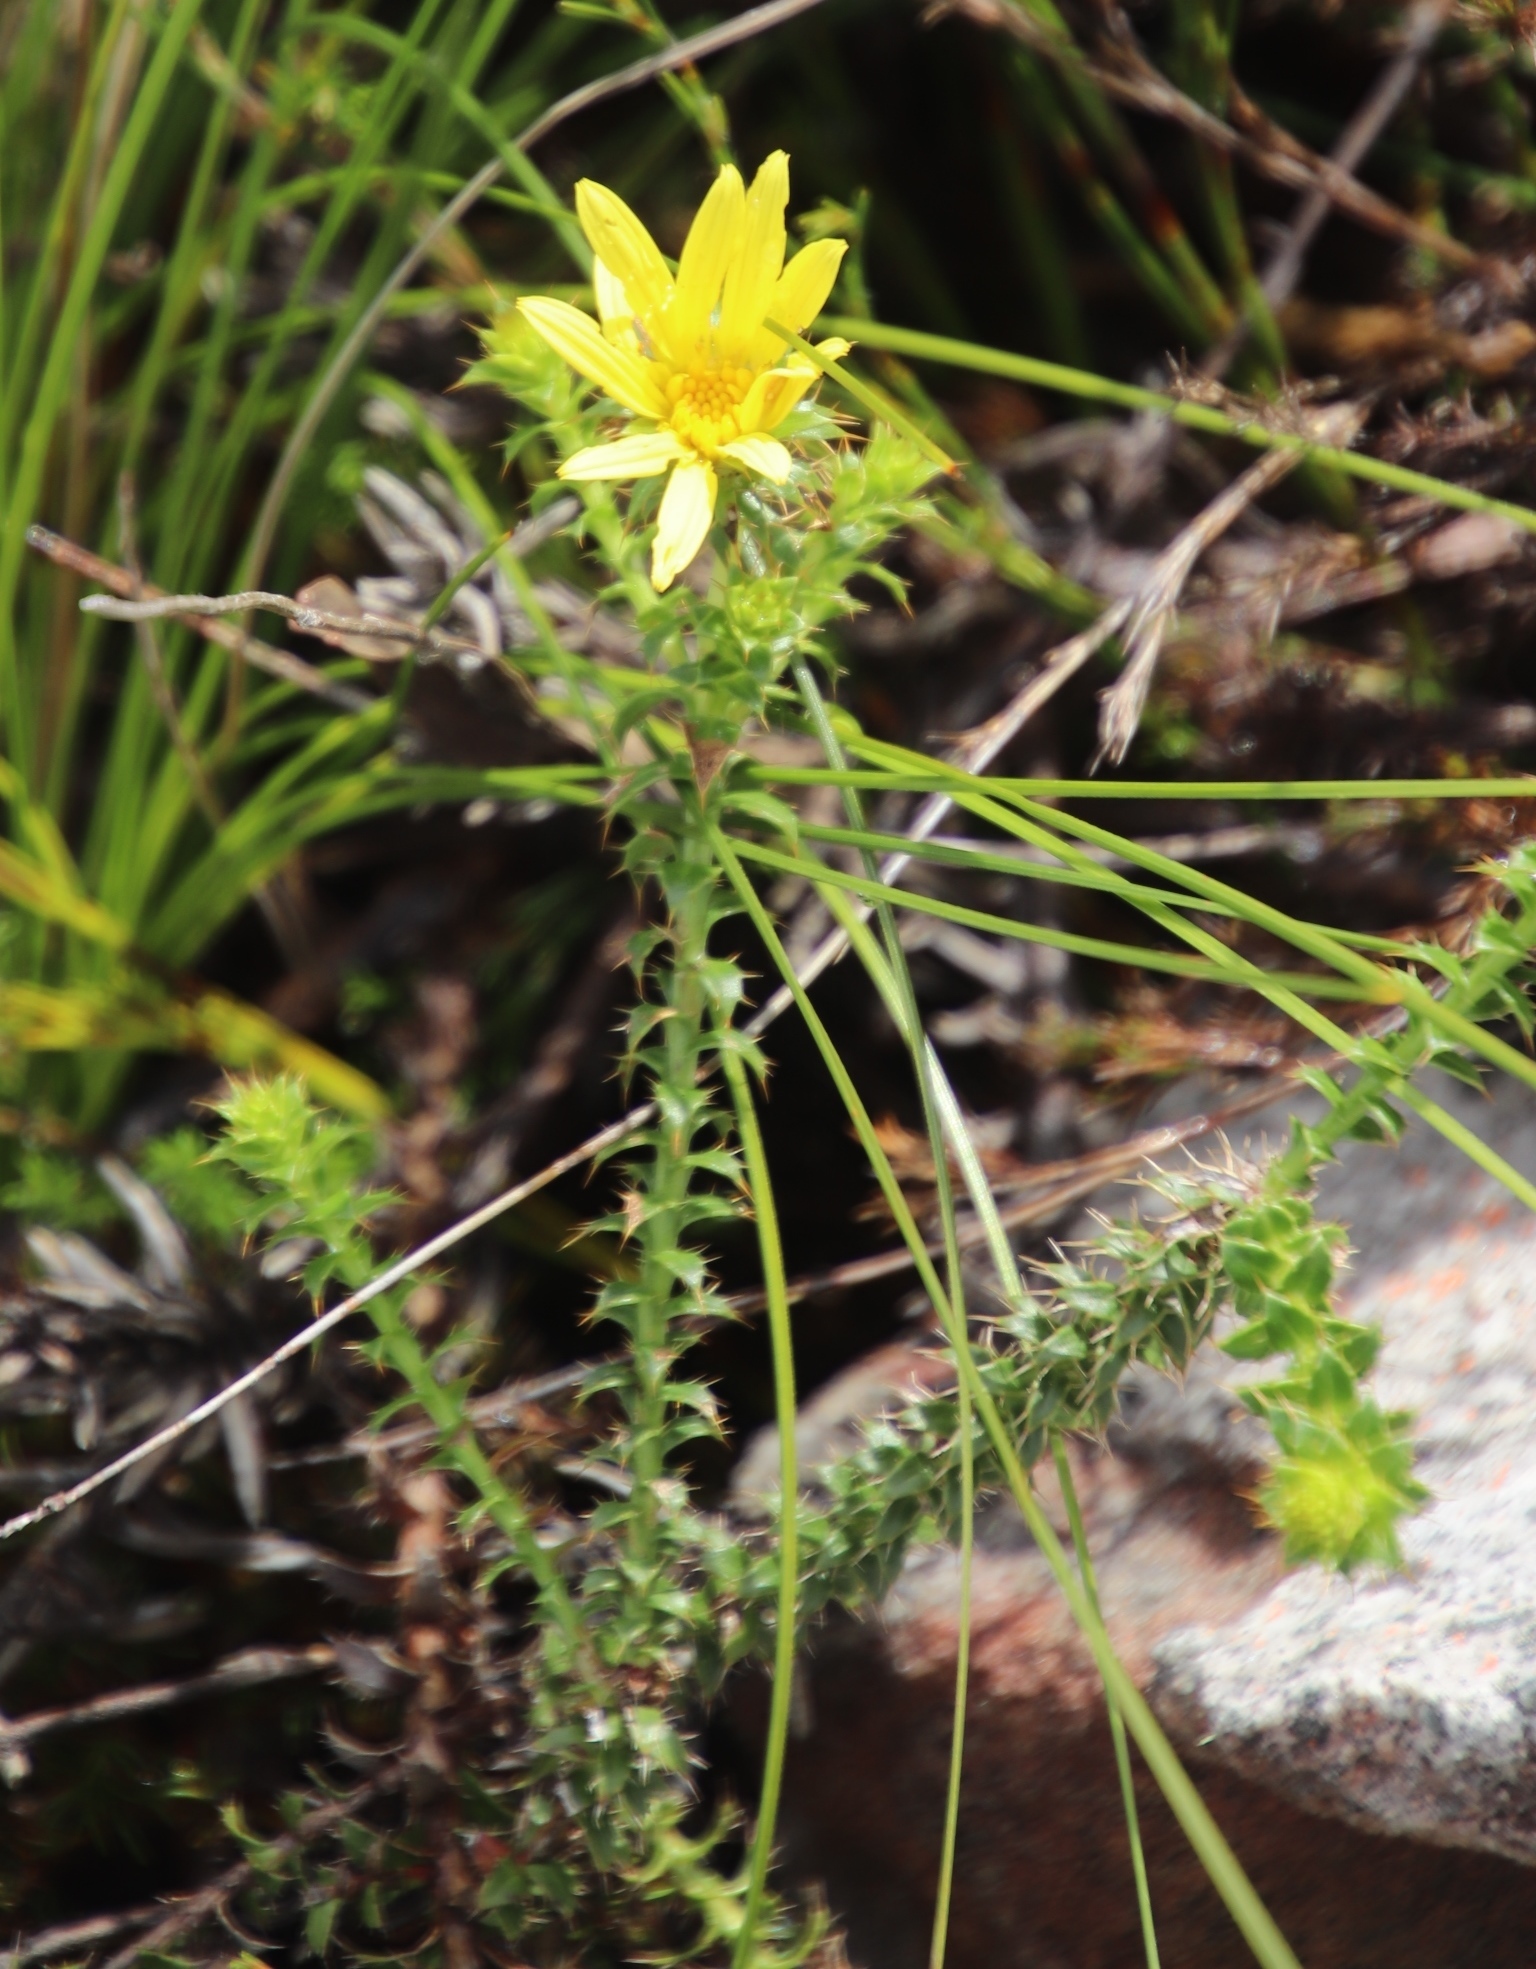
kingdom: Plantae
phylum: Tracheophyta
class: Magnoliopsida
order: Asterales
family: Asteraceae
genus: Cullumia
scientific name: Cullumia setosa
